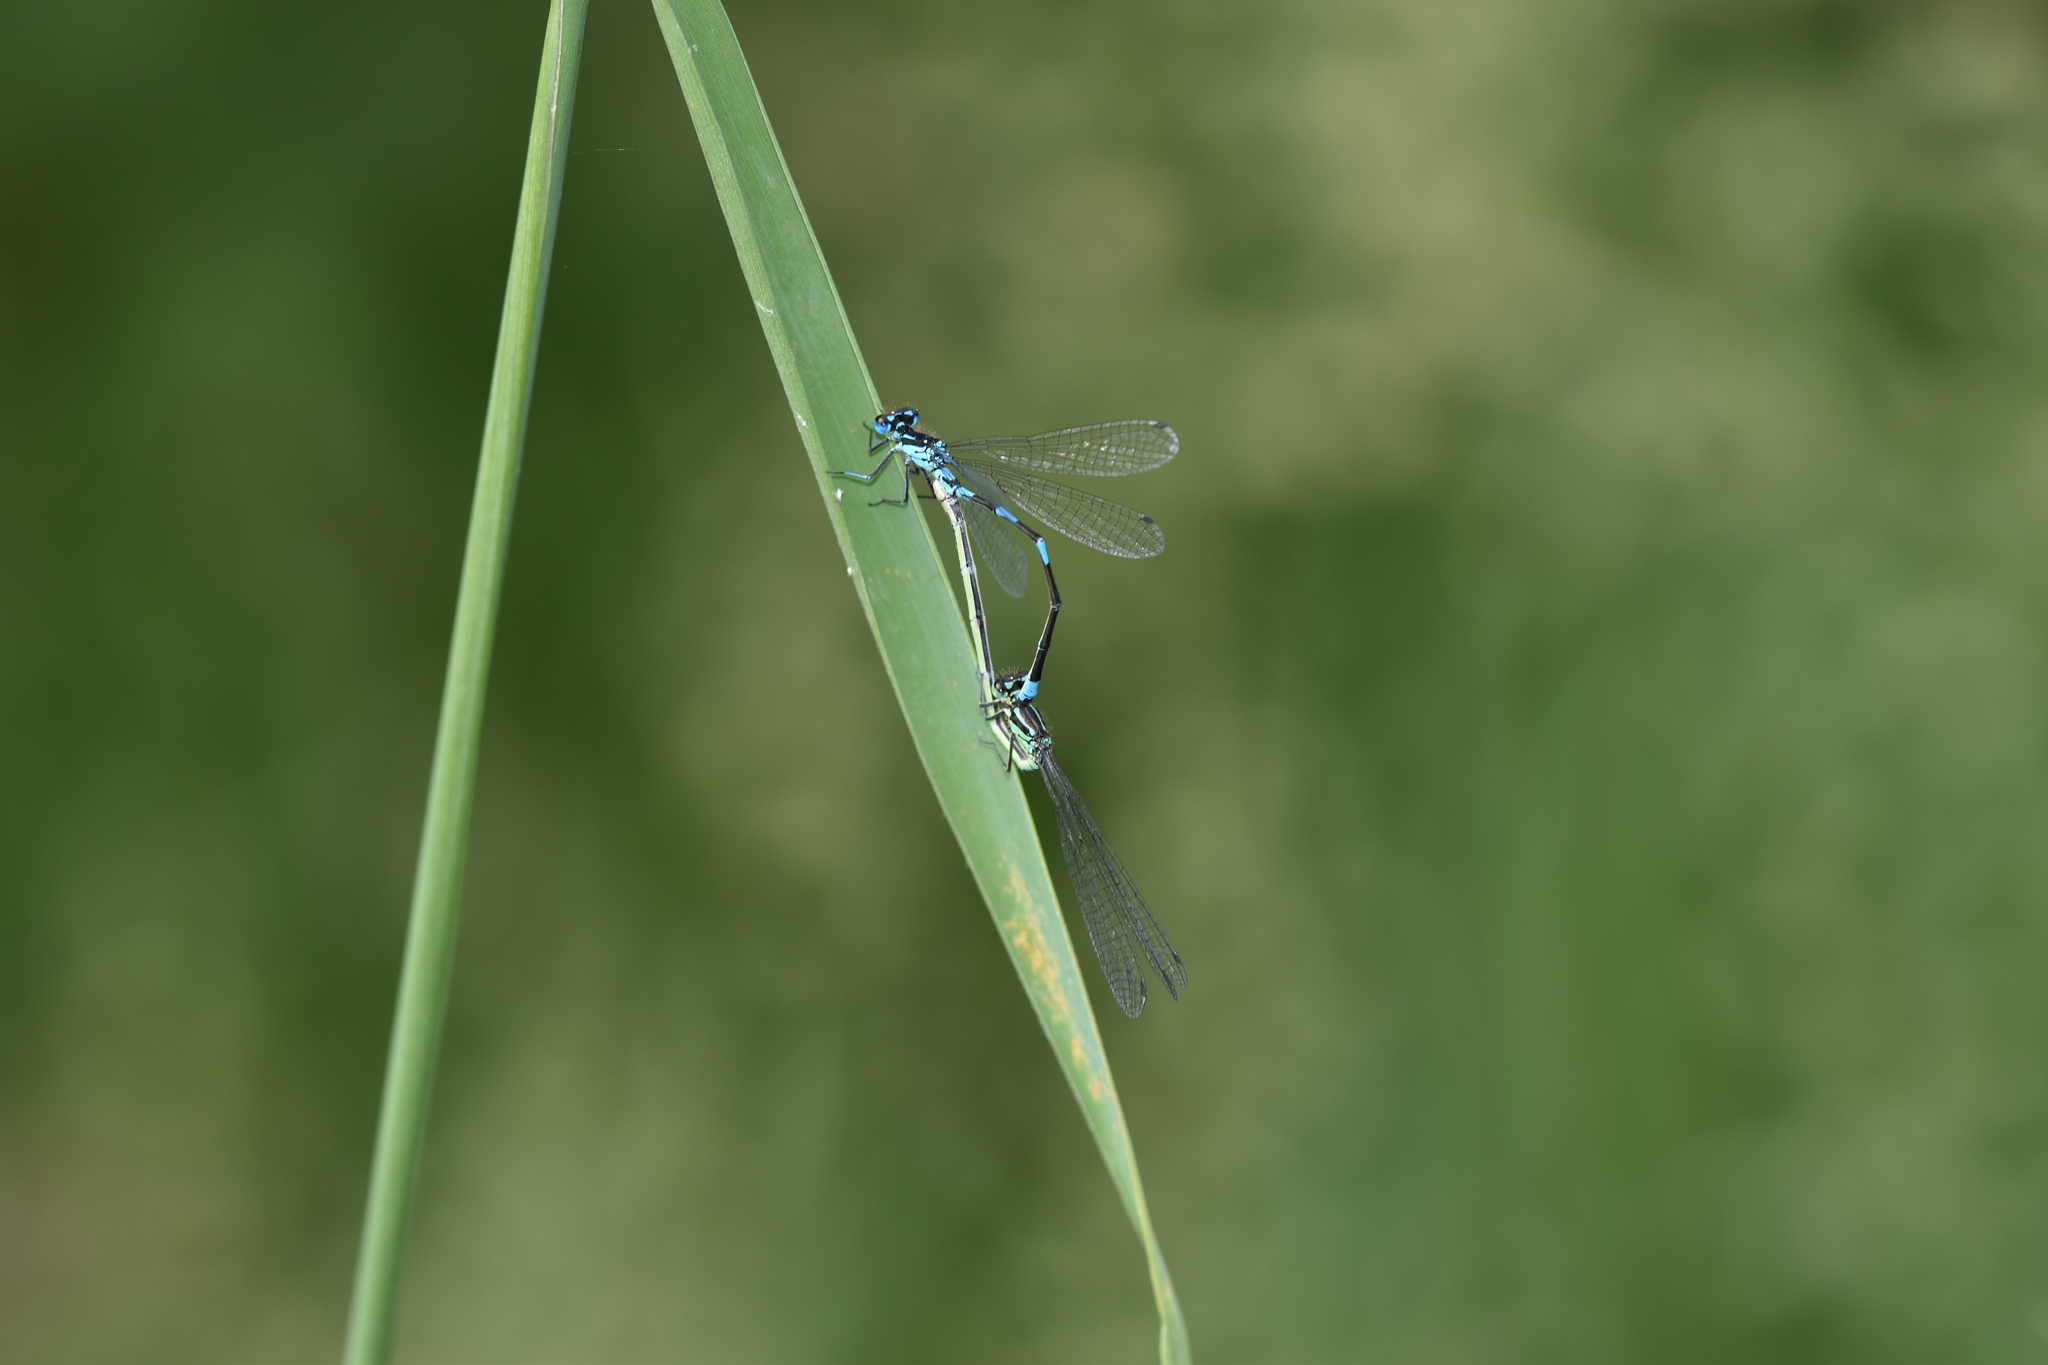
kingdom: Animalia
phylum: Arthropoda
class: Insecta
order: Odonata
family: Coenagrionidae
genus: Coenagrion
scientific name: Coenagrion pulchellum
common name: Variable bluet
